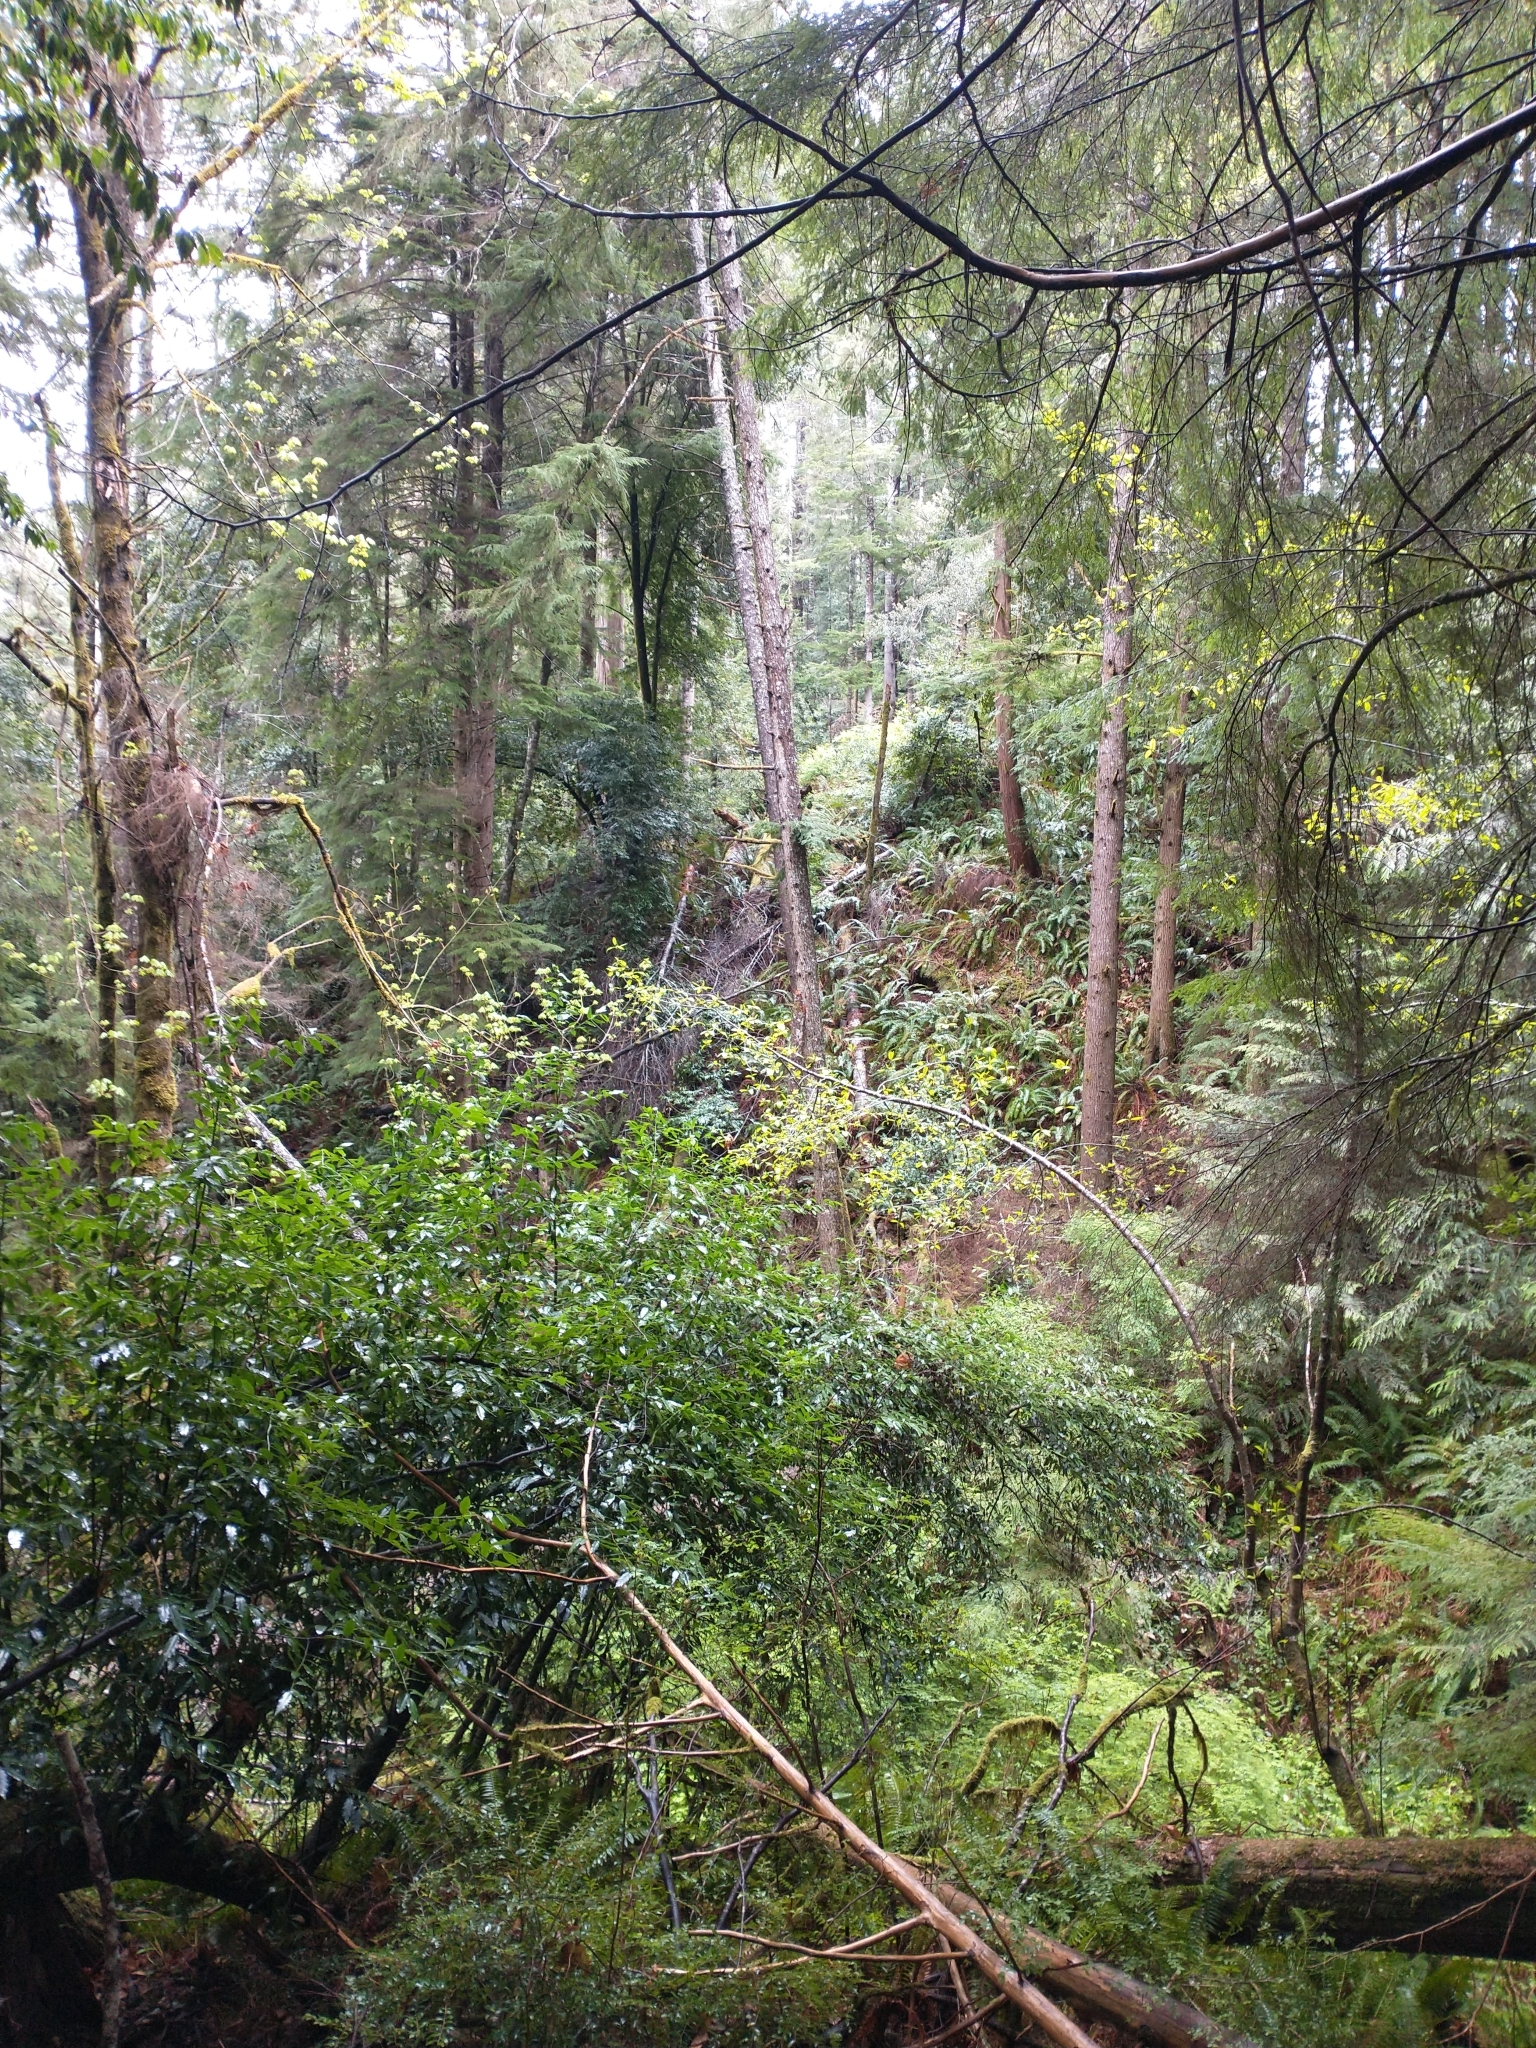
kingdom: Plantae
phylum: Tracheophyta
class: Pinopsida
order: Pinales
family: Pinaceae
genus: Tsuga
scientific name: Tsuga heterophylla
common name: Western hemlock
